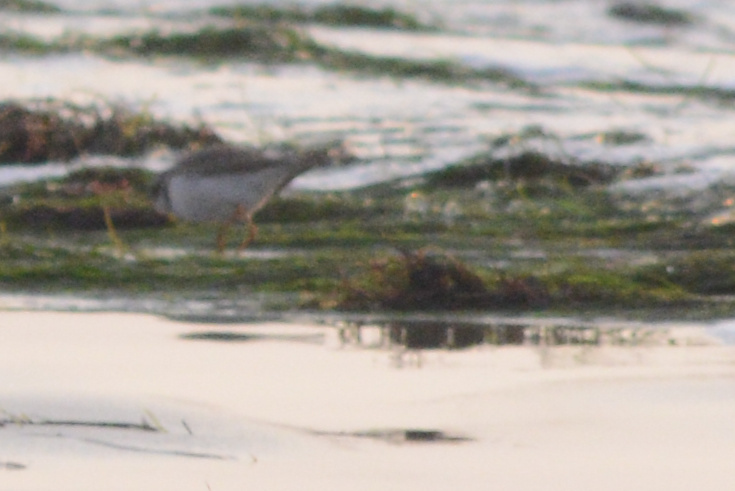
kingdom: Animalia
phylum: Chordata
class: Aves
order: Charadriiformes
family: Charadriidae
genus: Charadrius
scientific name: Charadrius semipalmatus
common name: Semipalmated plover
